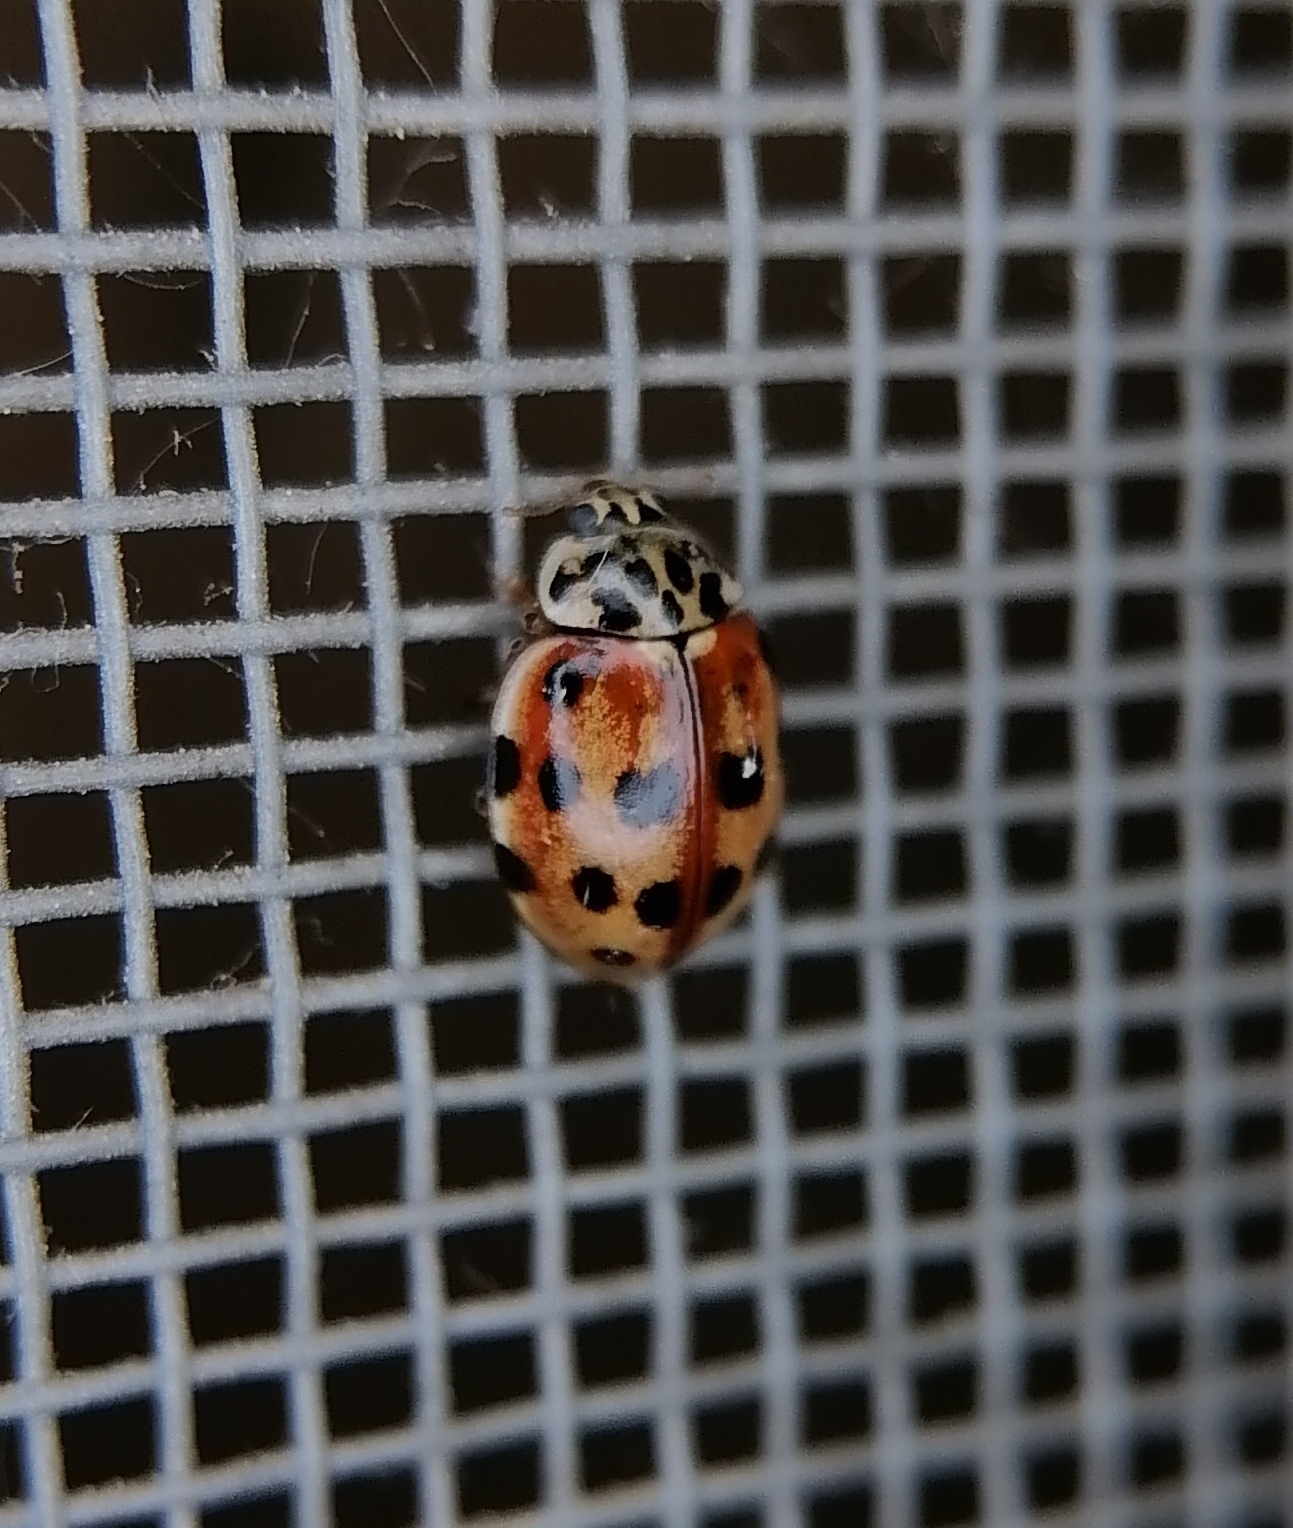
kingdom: Animalia
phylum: Arthropoda
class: Insecta
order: Coleoptera
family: Coccinellidae
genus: Harmonia
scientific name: Harmonia quadripunctata
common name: Cream-streaked ladybird
